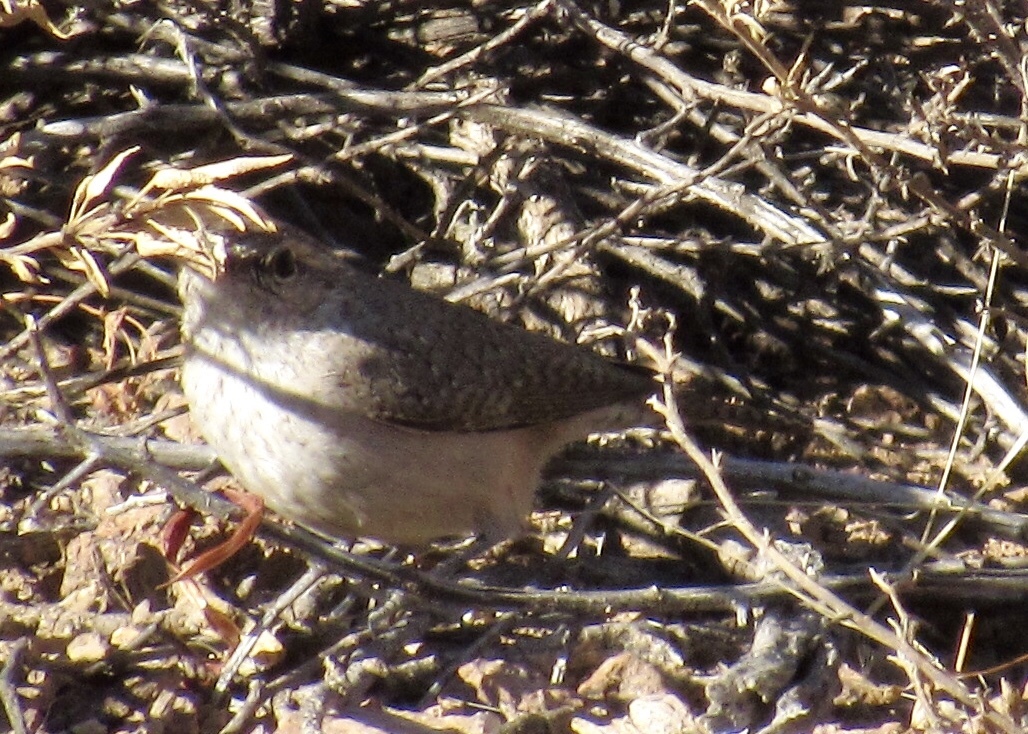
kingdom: Animalia
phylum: Chordata
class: Aves
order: Passeriformes
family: Troglodytidae
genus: Salpinctes
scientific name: Salpinctes obsoletus
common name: Rock wren
